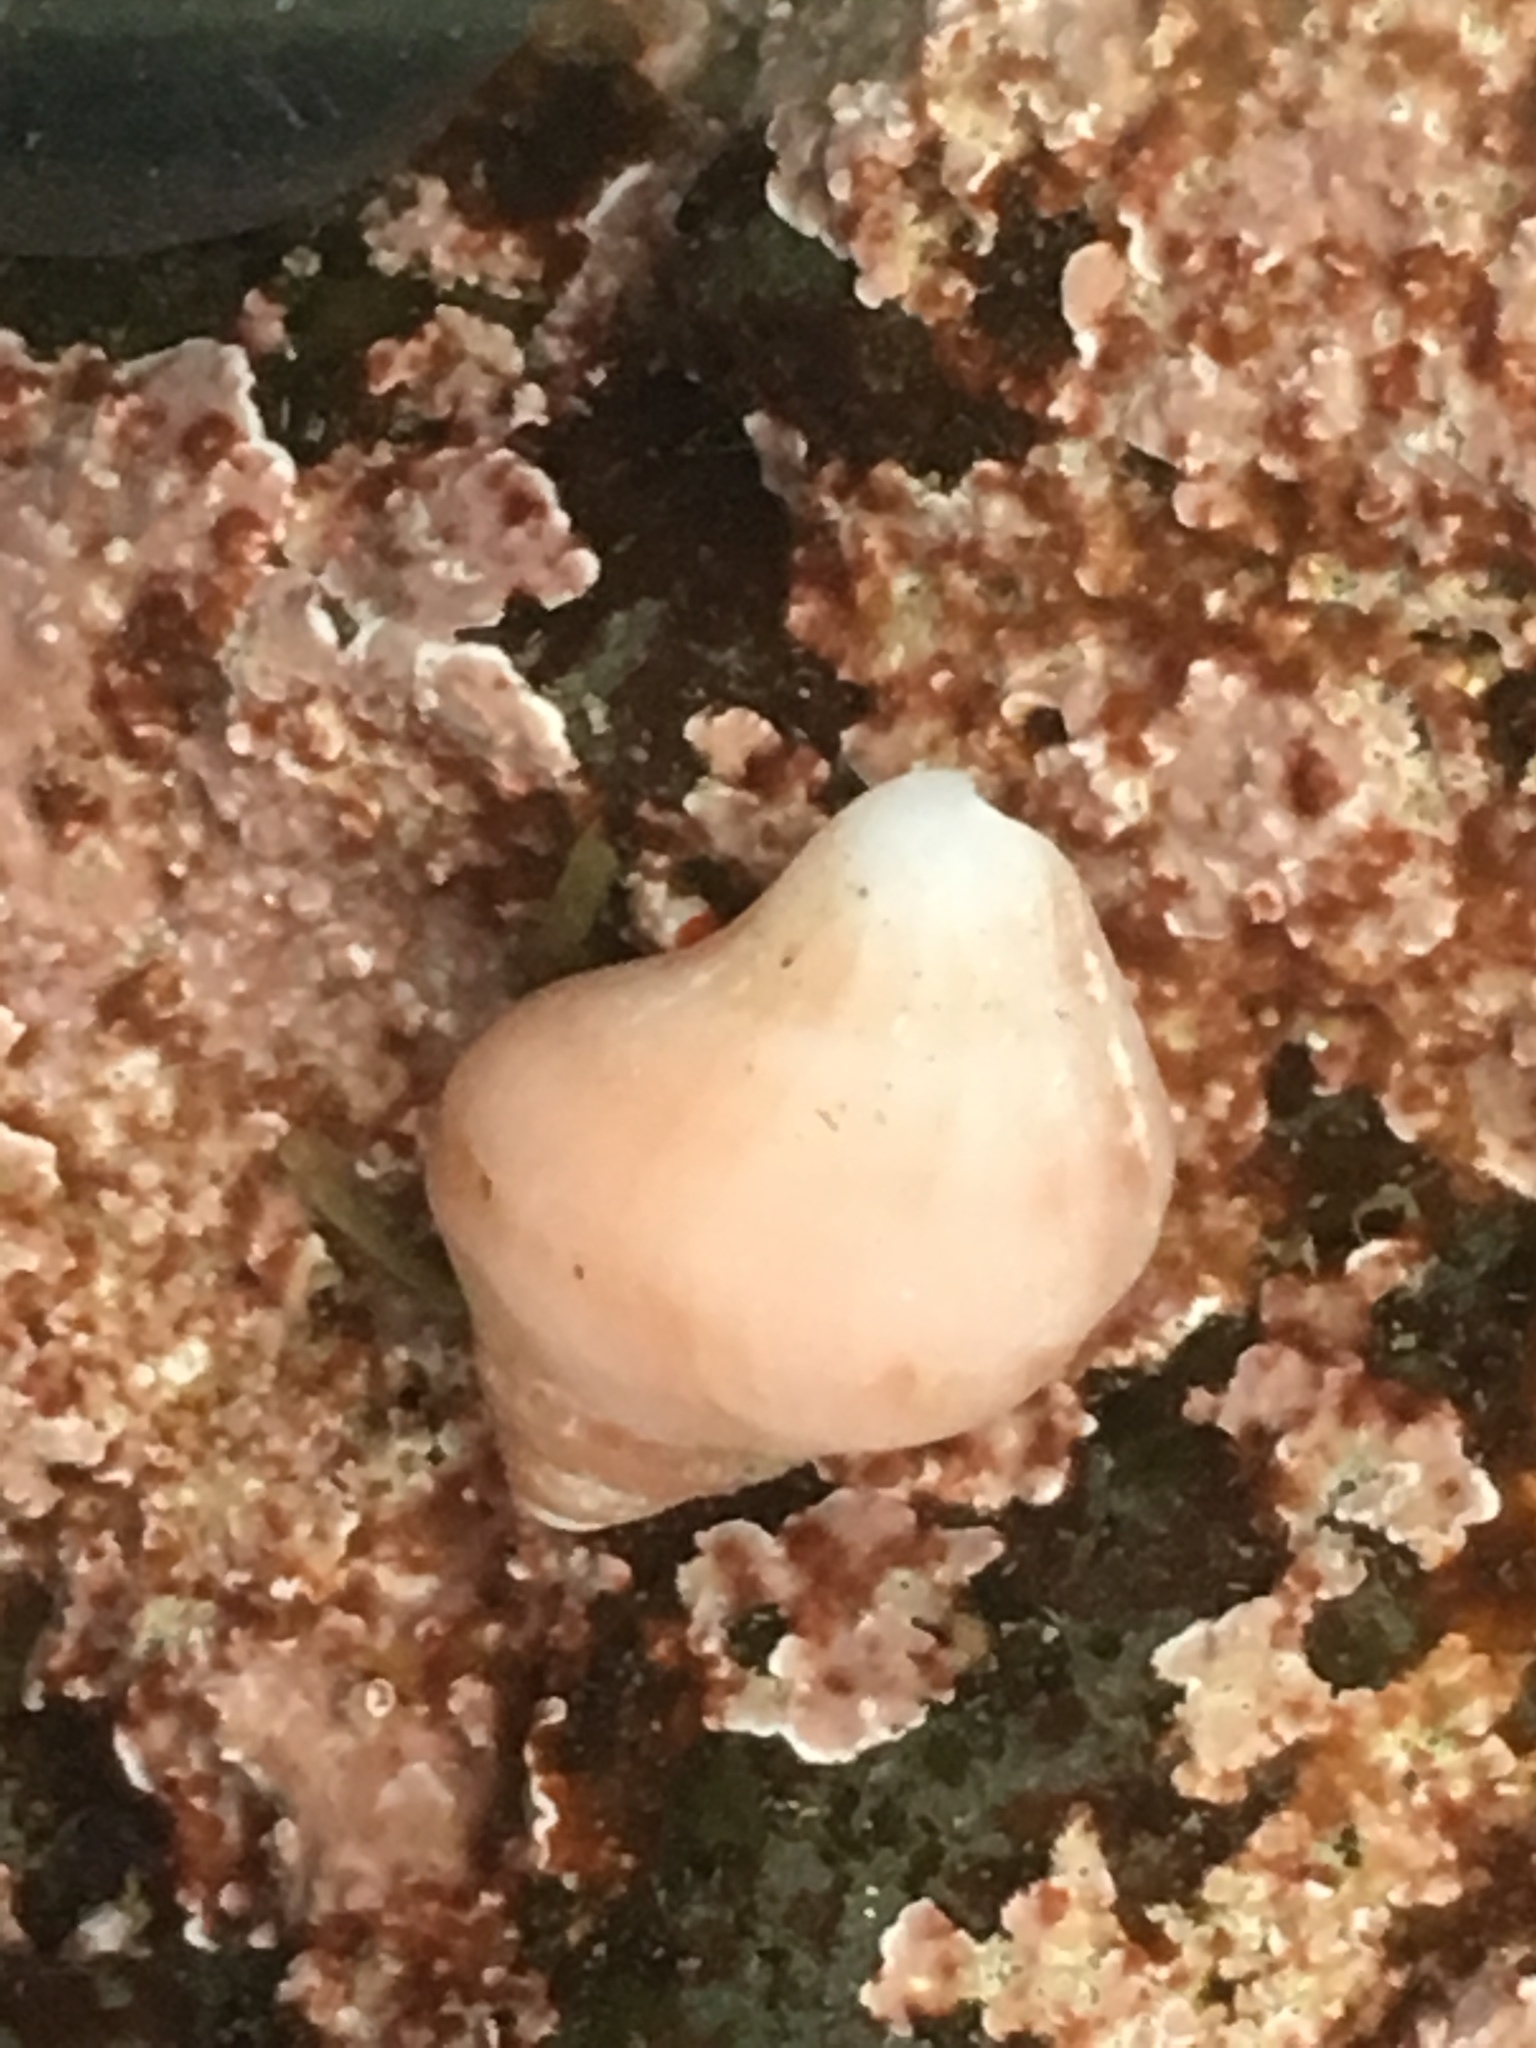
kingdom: Animalia
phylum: Mollusca
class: Gastropoda
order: Neogastropoda
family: Muricidae
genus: Nucella
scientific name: Nucella lamellosa
